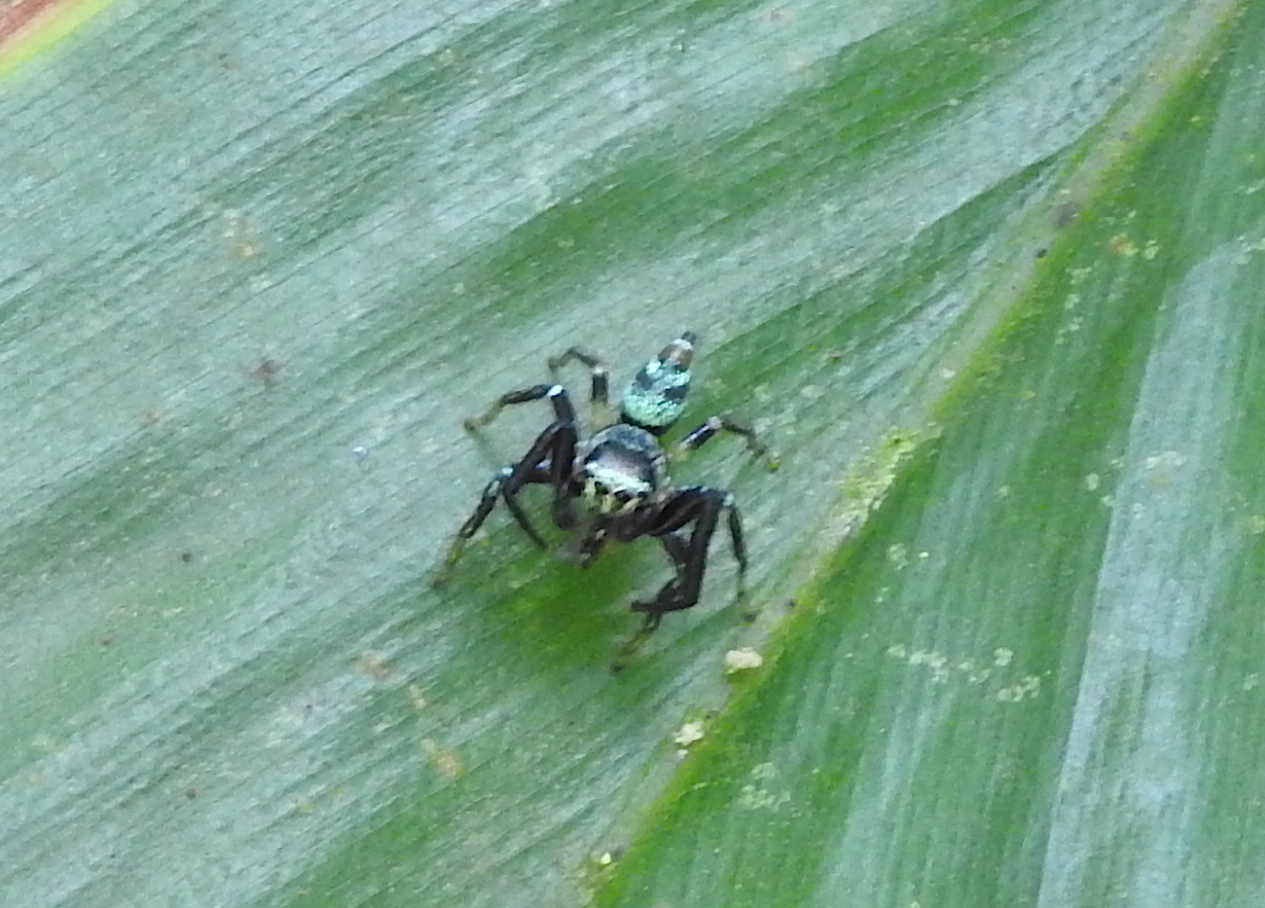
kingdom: Animalia
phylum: Arthropoda
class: Arachnida
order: Araneae
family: Salticidae
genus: Thiania
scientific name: Thiania bhamoensis
